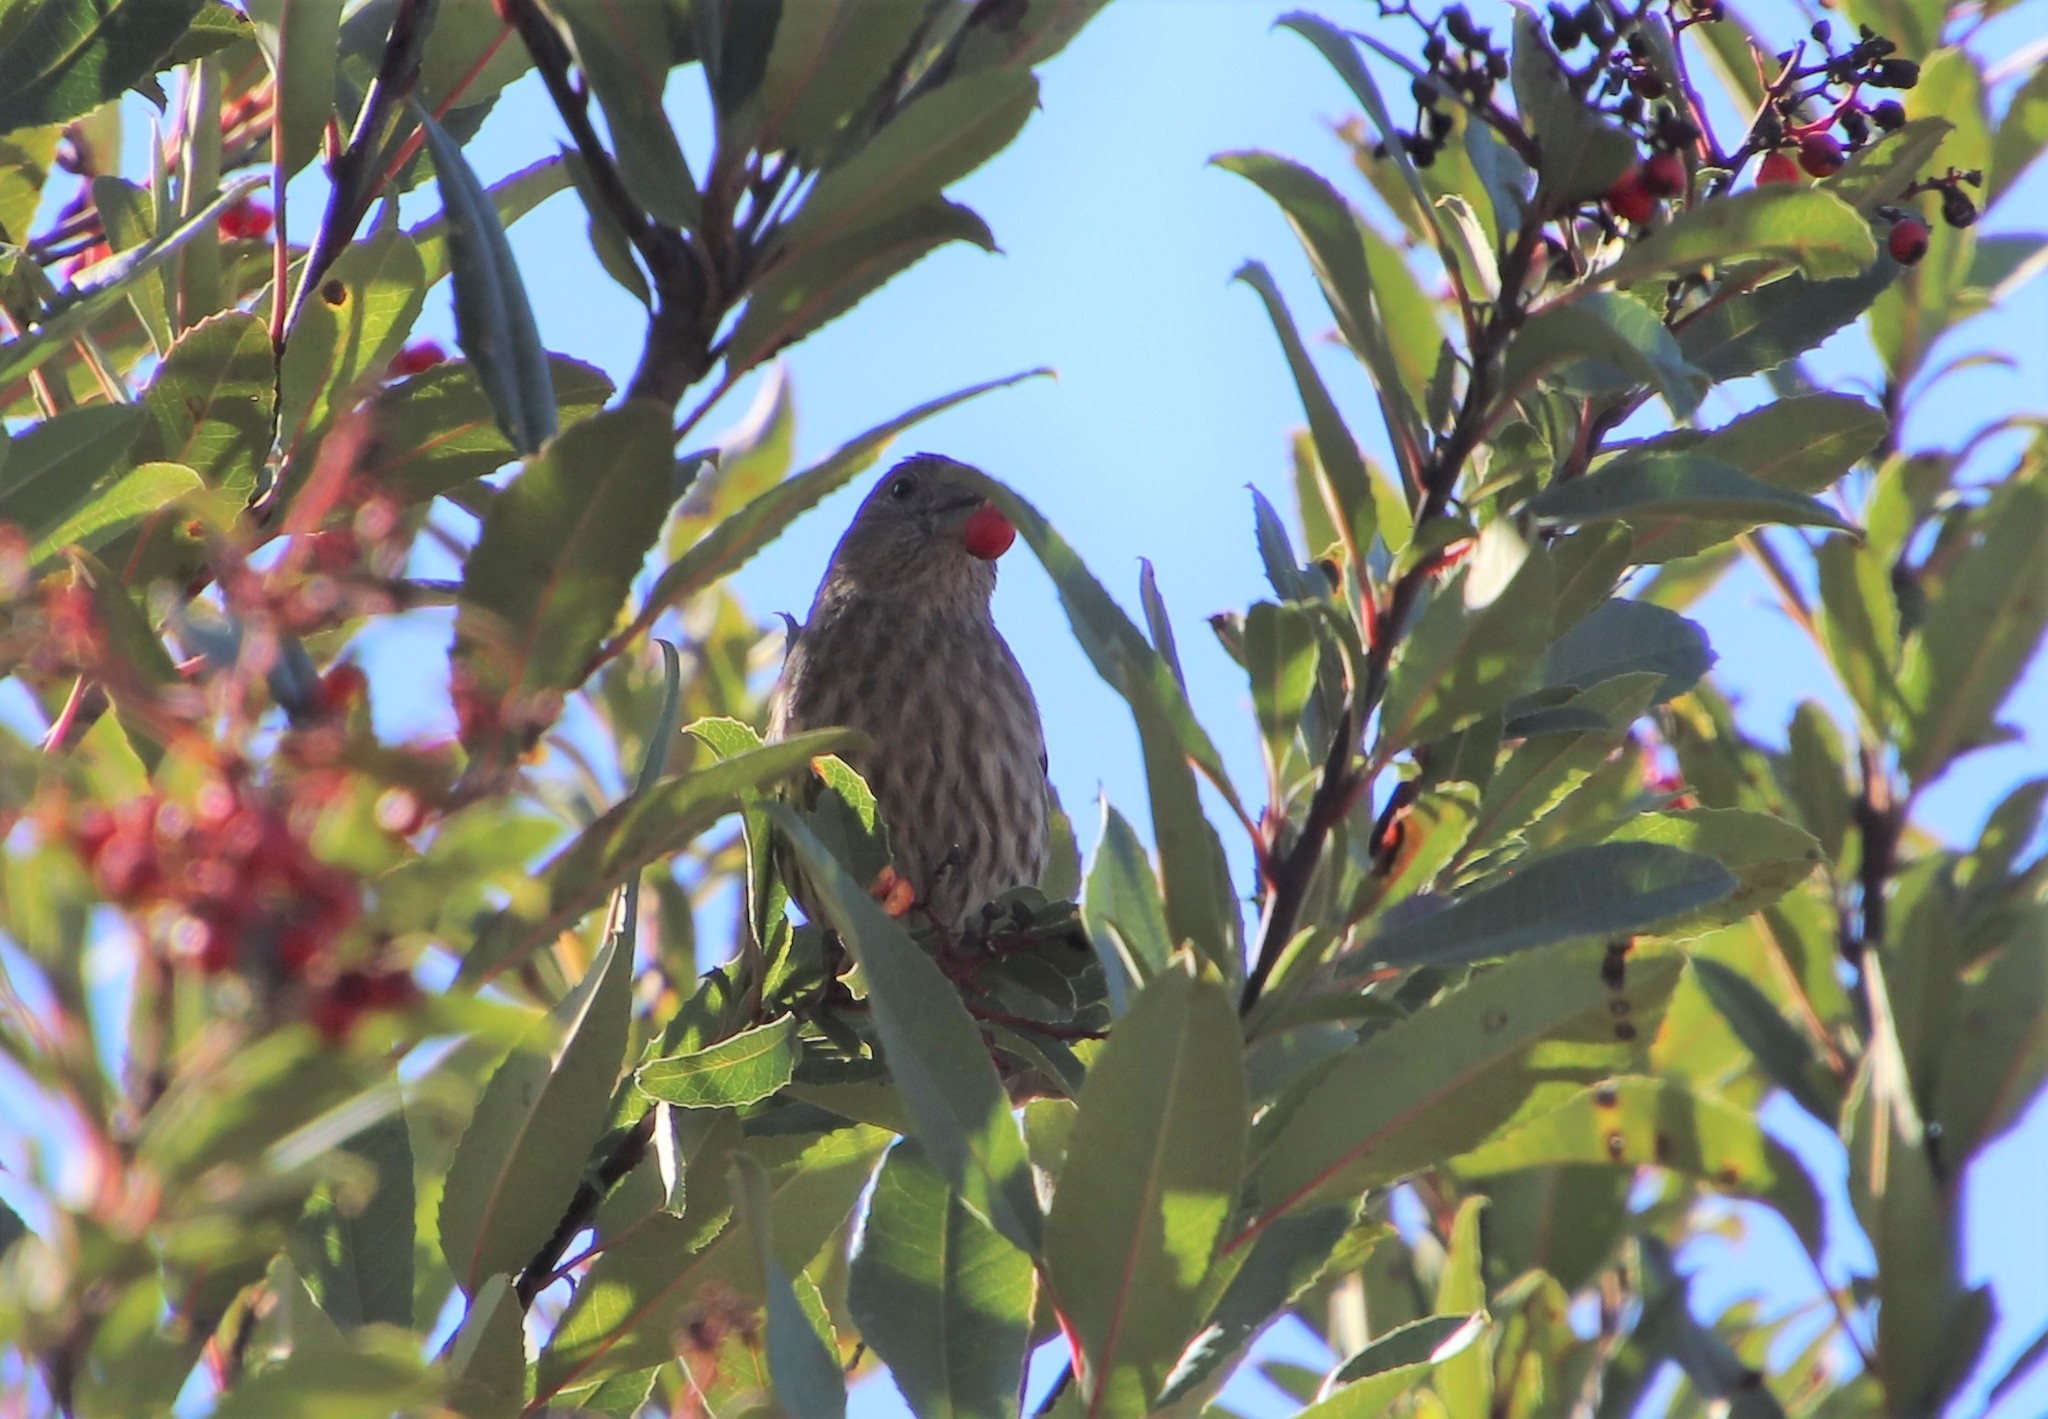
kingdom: Animalia
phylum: Chordata
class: Aves
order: Passeriformes
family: Fringillidae
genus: Haemorhous
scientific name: Haemorhous mexicanus
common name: House finch
